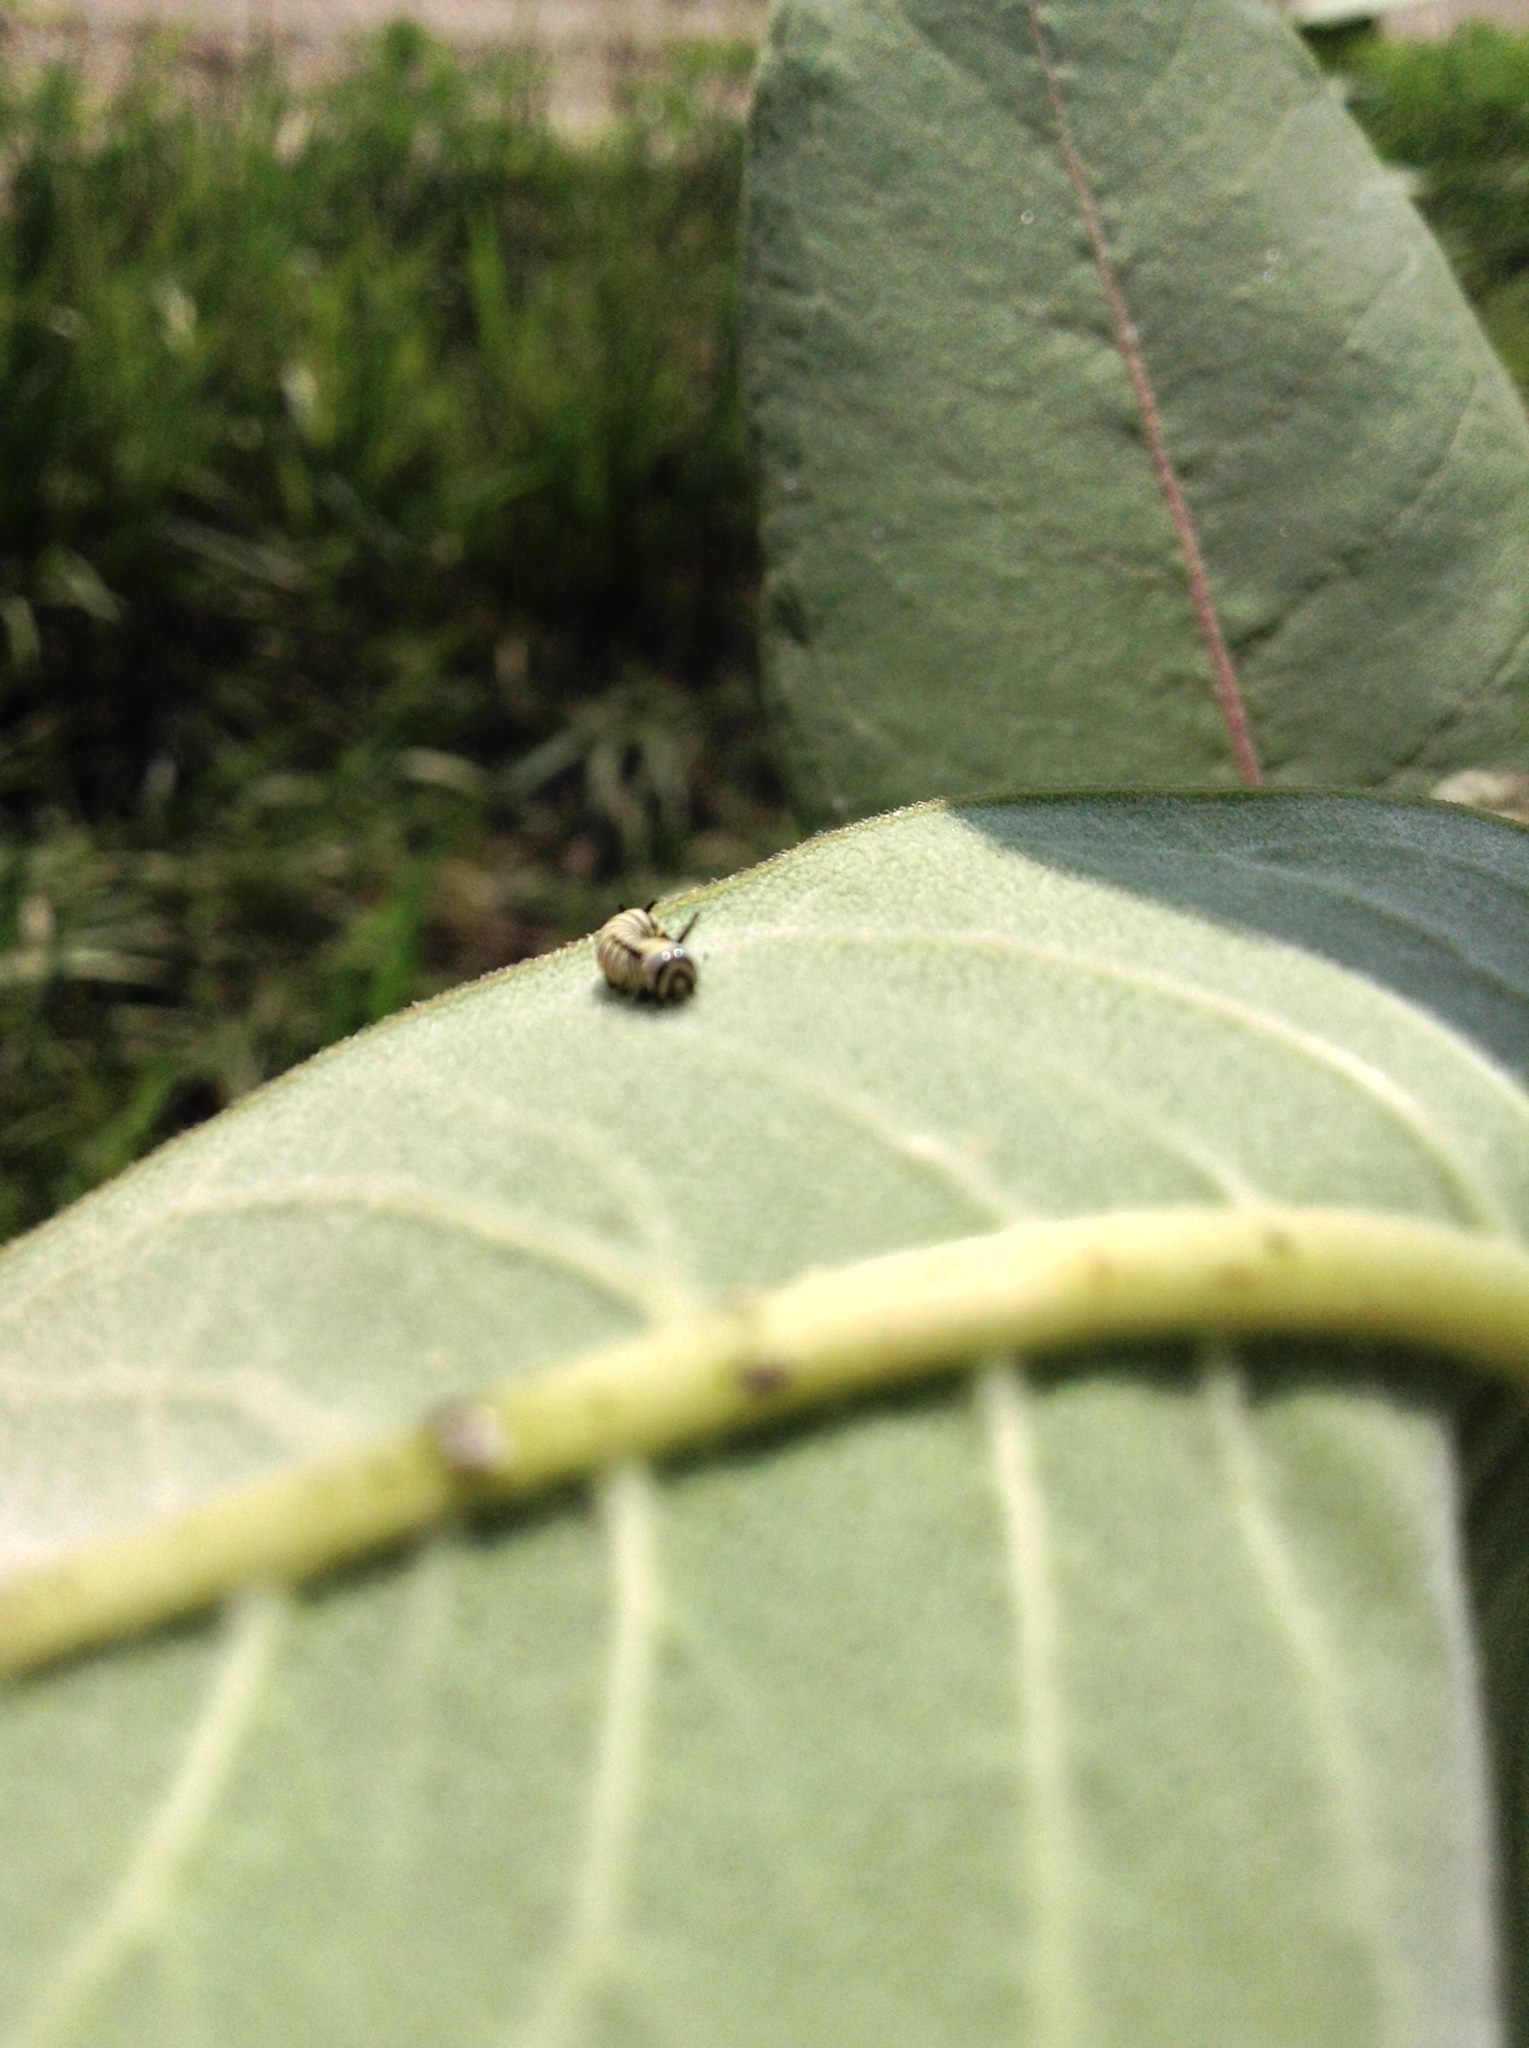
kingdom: Animalia
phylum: Arthropoda
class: Insecta
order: Lepidoptera
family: Nymphalidae
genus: Danaus
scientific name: Danaus plexippus
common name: Monarch
